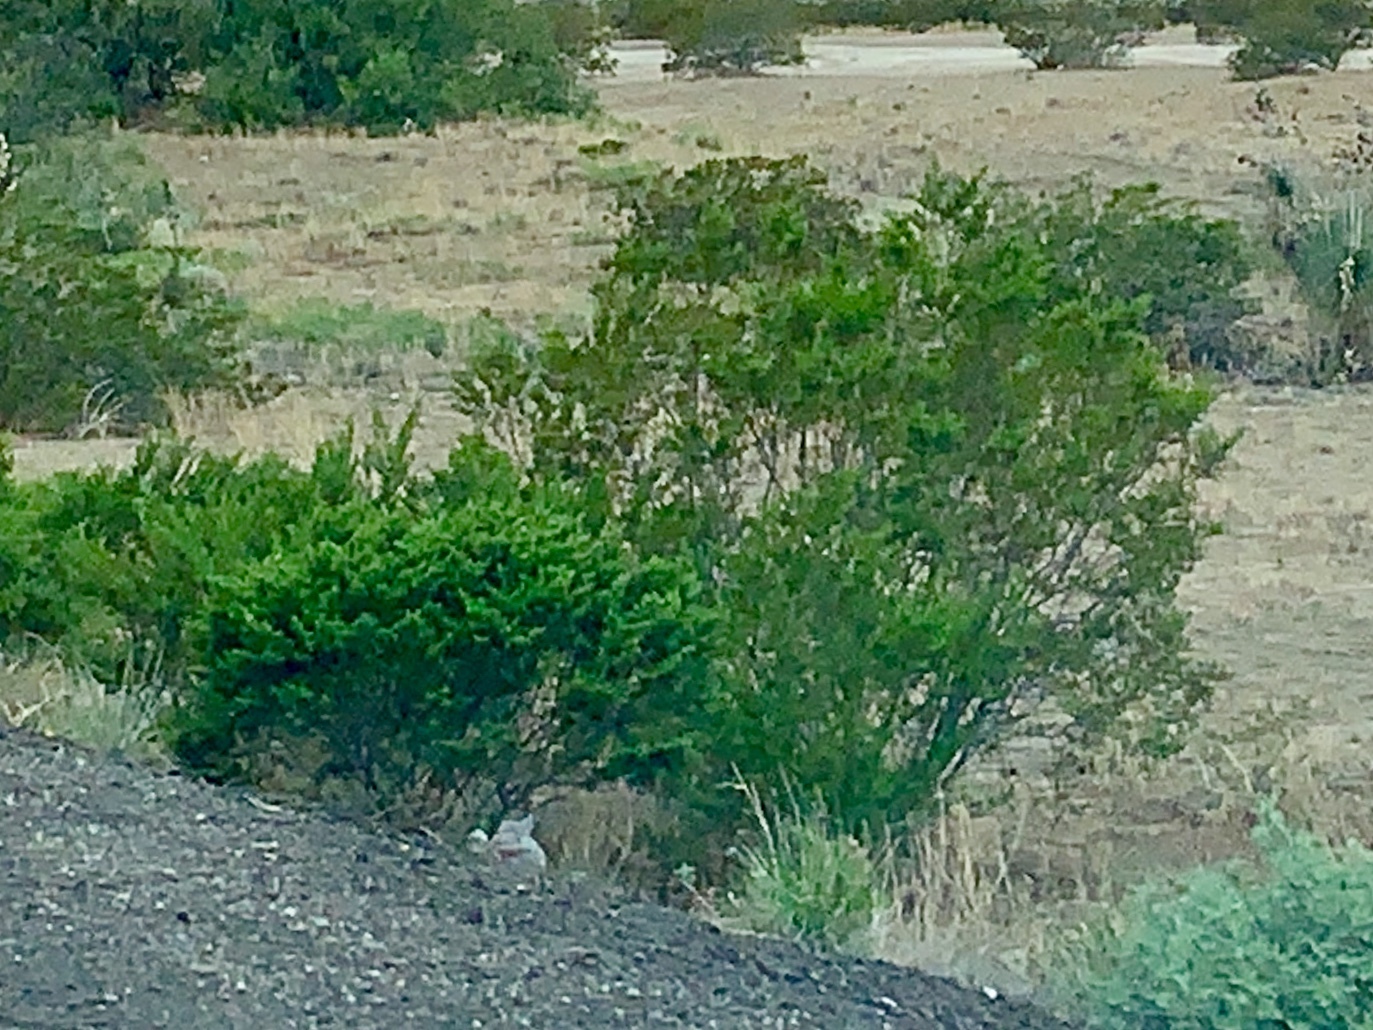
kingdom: Plantae
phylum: Tracheophyta
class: Magnoliopsida
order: Zygophyllales
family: Zygophyllaceae
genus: Larrea
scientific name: Larrea tridentata
